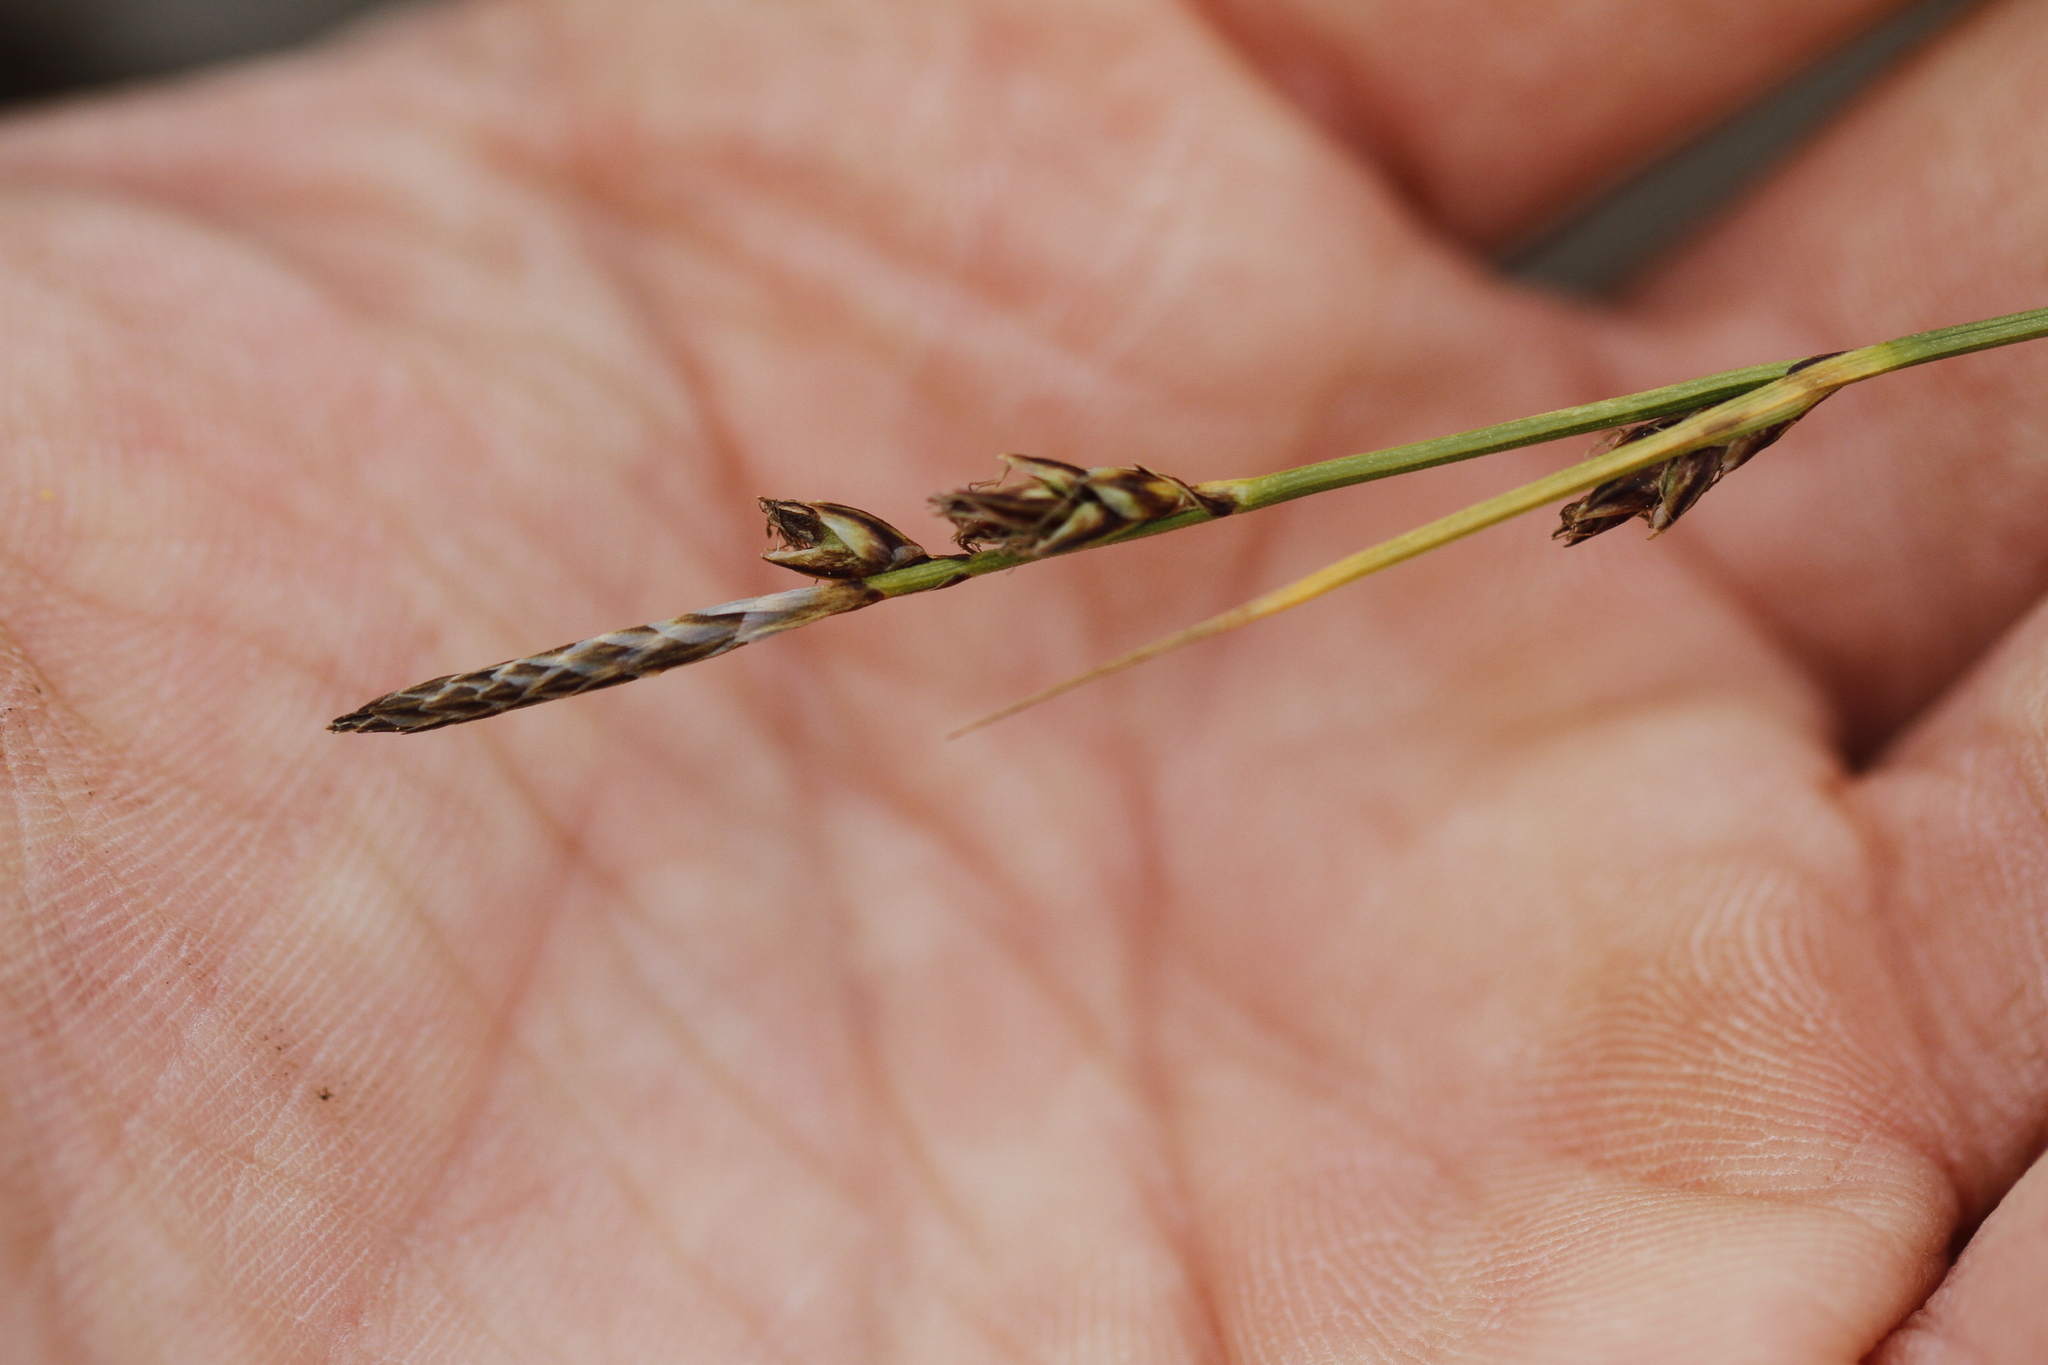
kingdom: Plantae
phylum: Tracheophyta
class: Liliopsida
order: Poales
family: Cyperaceae
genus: Carex
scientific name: Carex inops
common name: Long-stolon sedge
